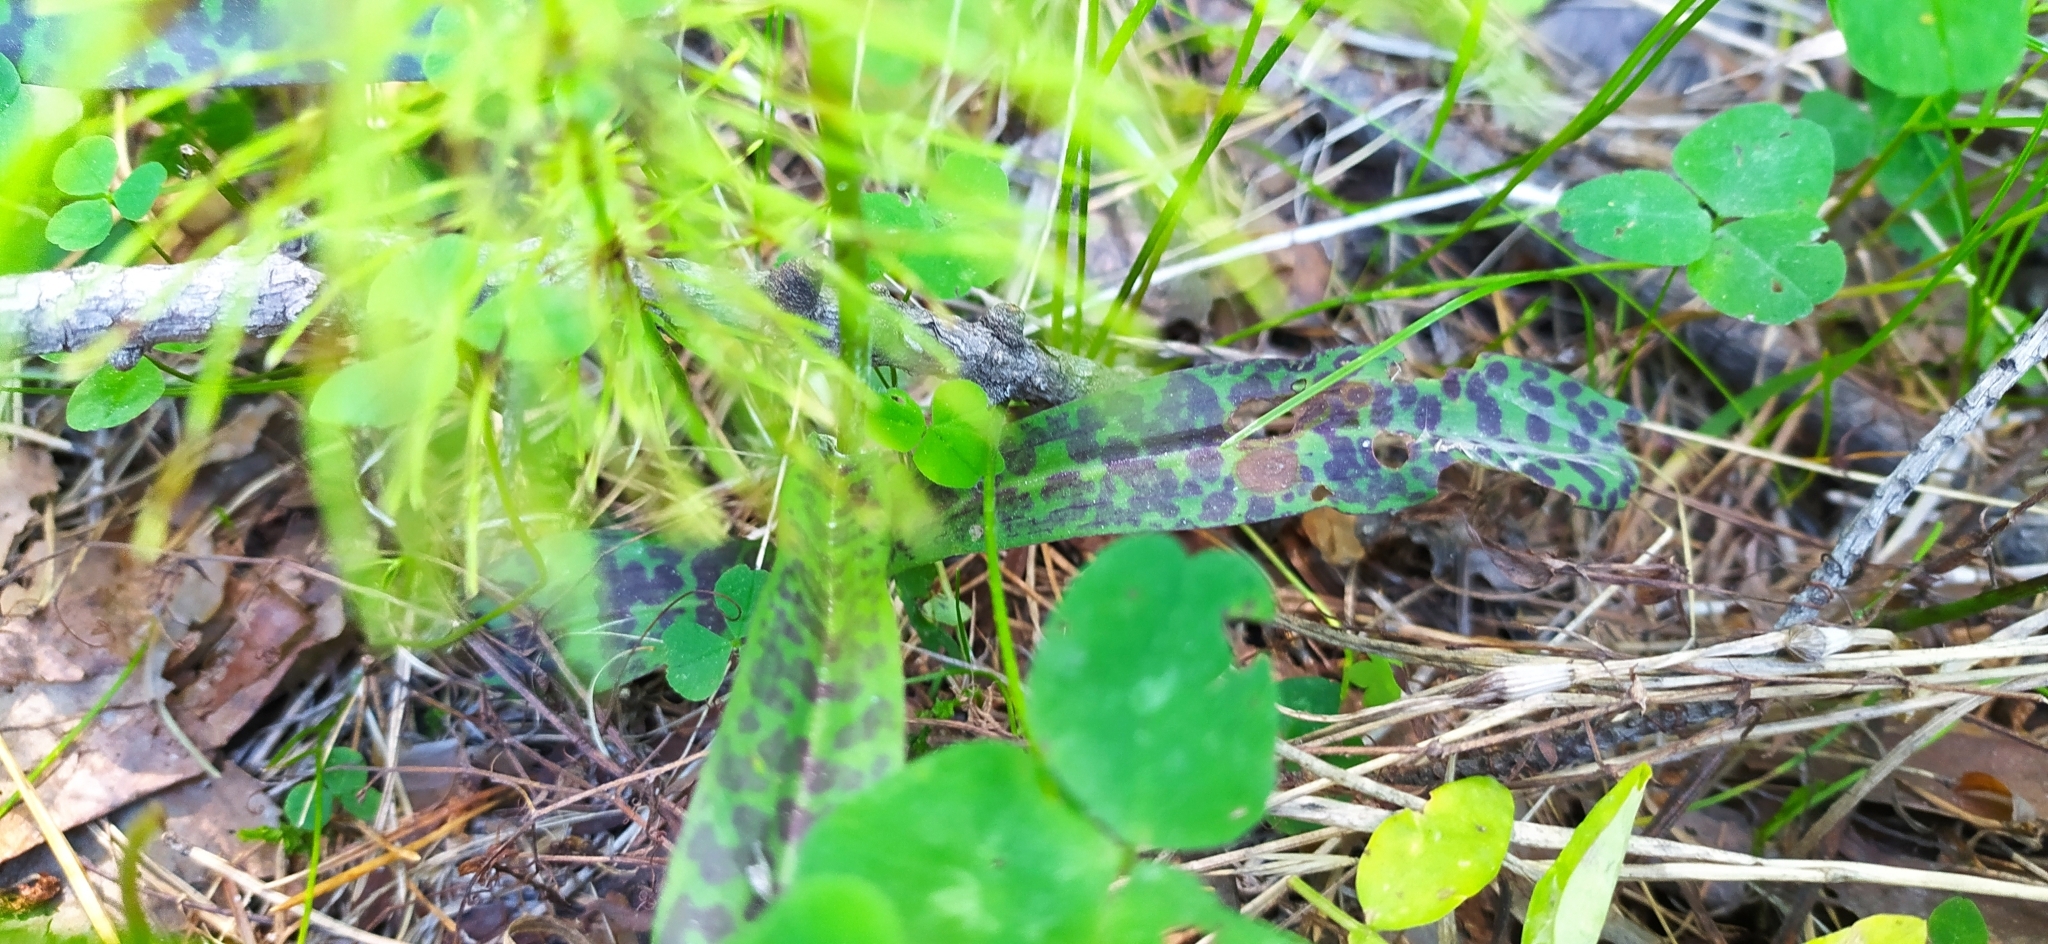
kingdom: Plantae
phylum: Tracheophyta
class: Liliopsida
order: Asparagales
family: Orchidaceae
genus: Dactylorhiza
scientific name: Dactylorhiza maculata
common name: Heath spotted-orchid
